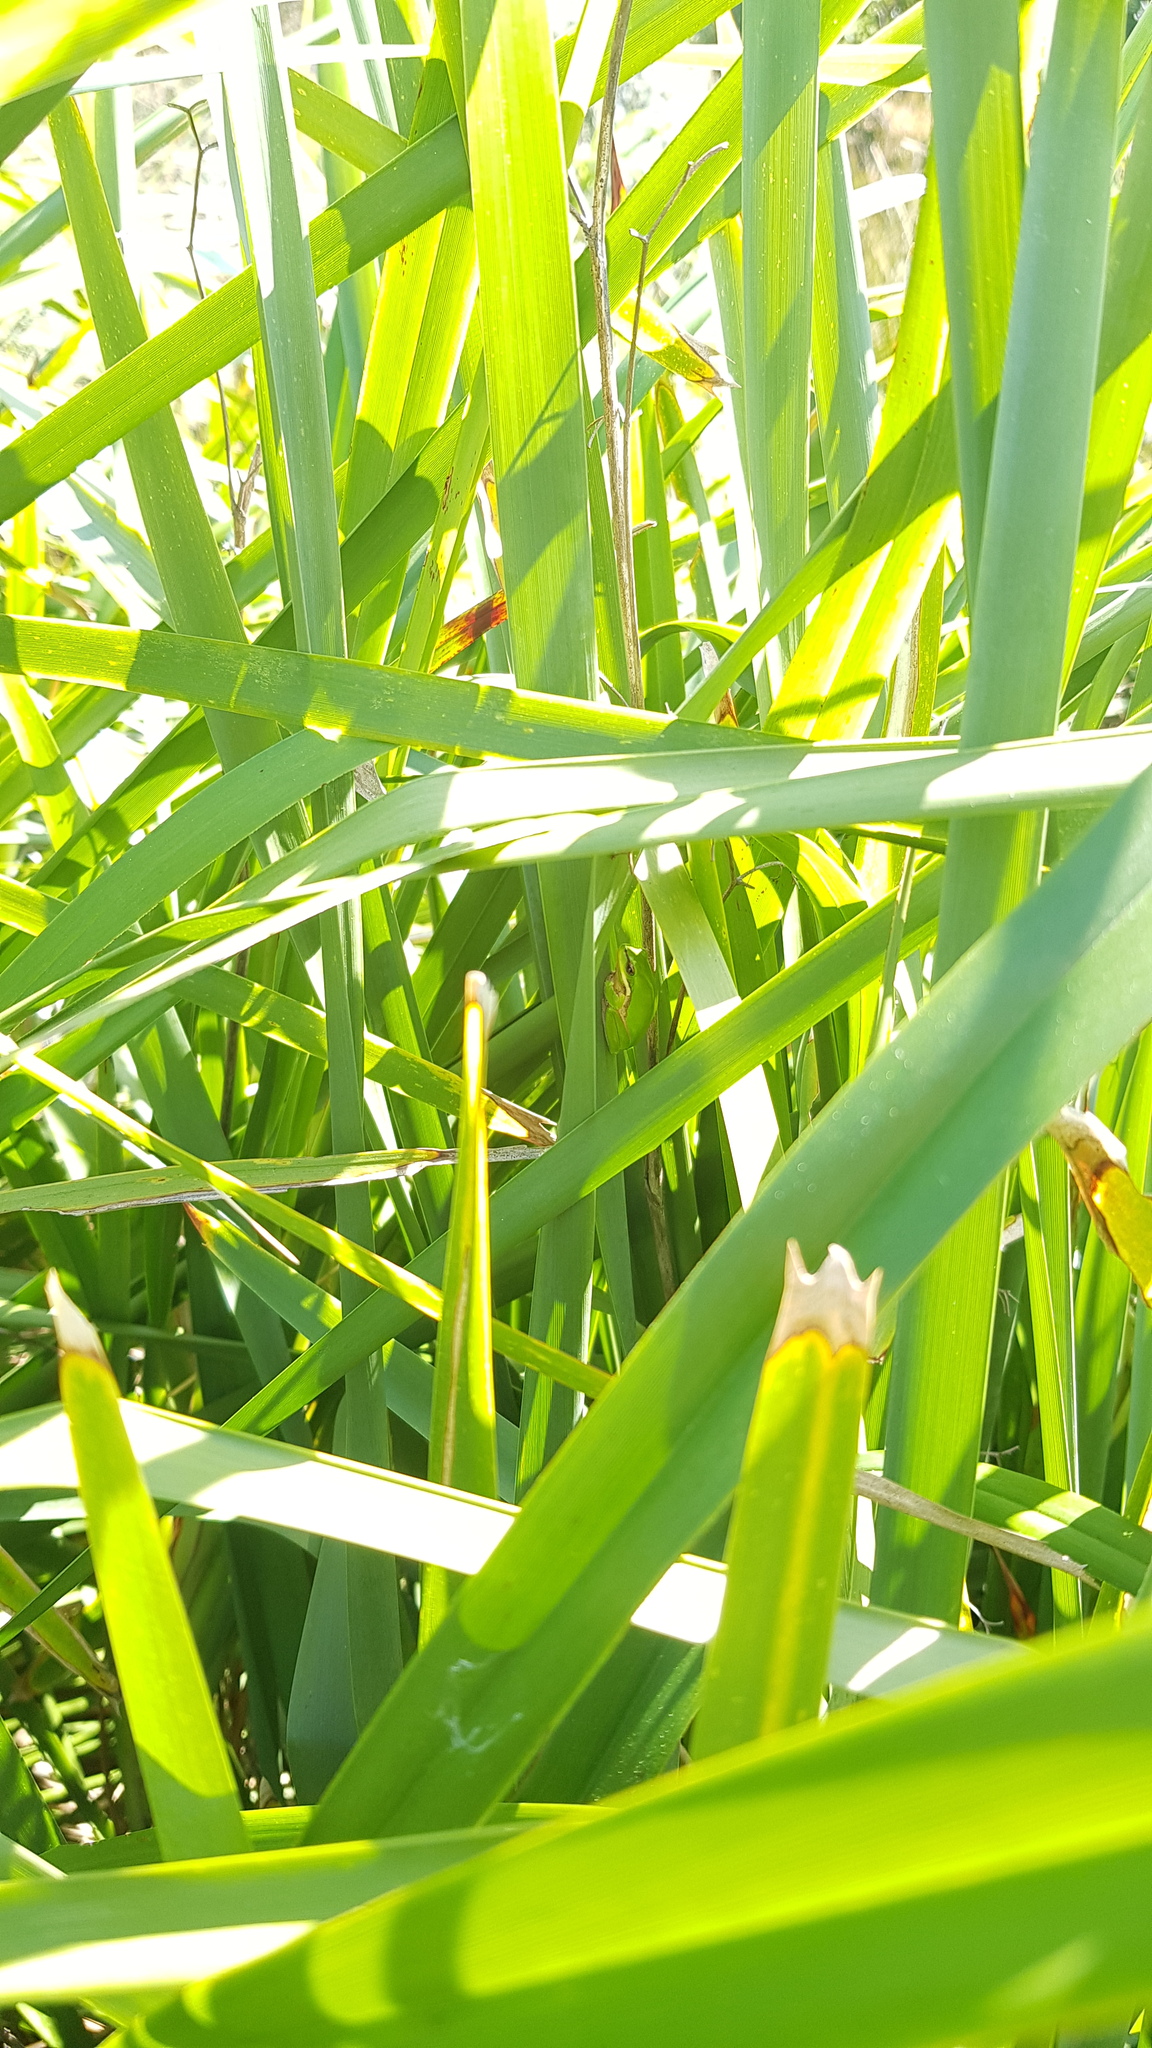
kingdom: Animalia
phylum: Chordata
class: Amphibia
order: Anura
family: Pelodryadidae
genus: Litoria
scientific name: Litoria fallax
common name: Eastern dwarf treefrog
